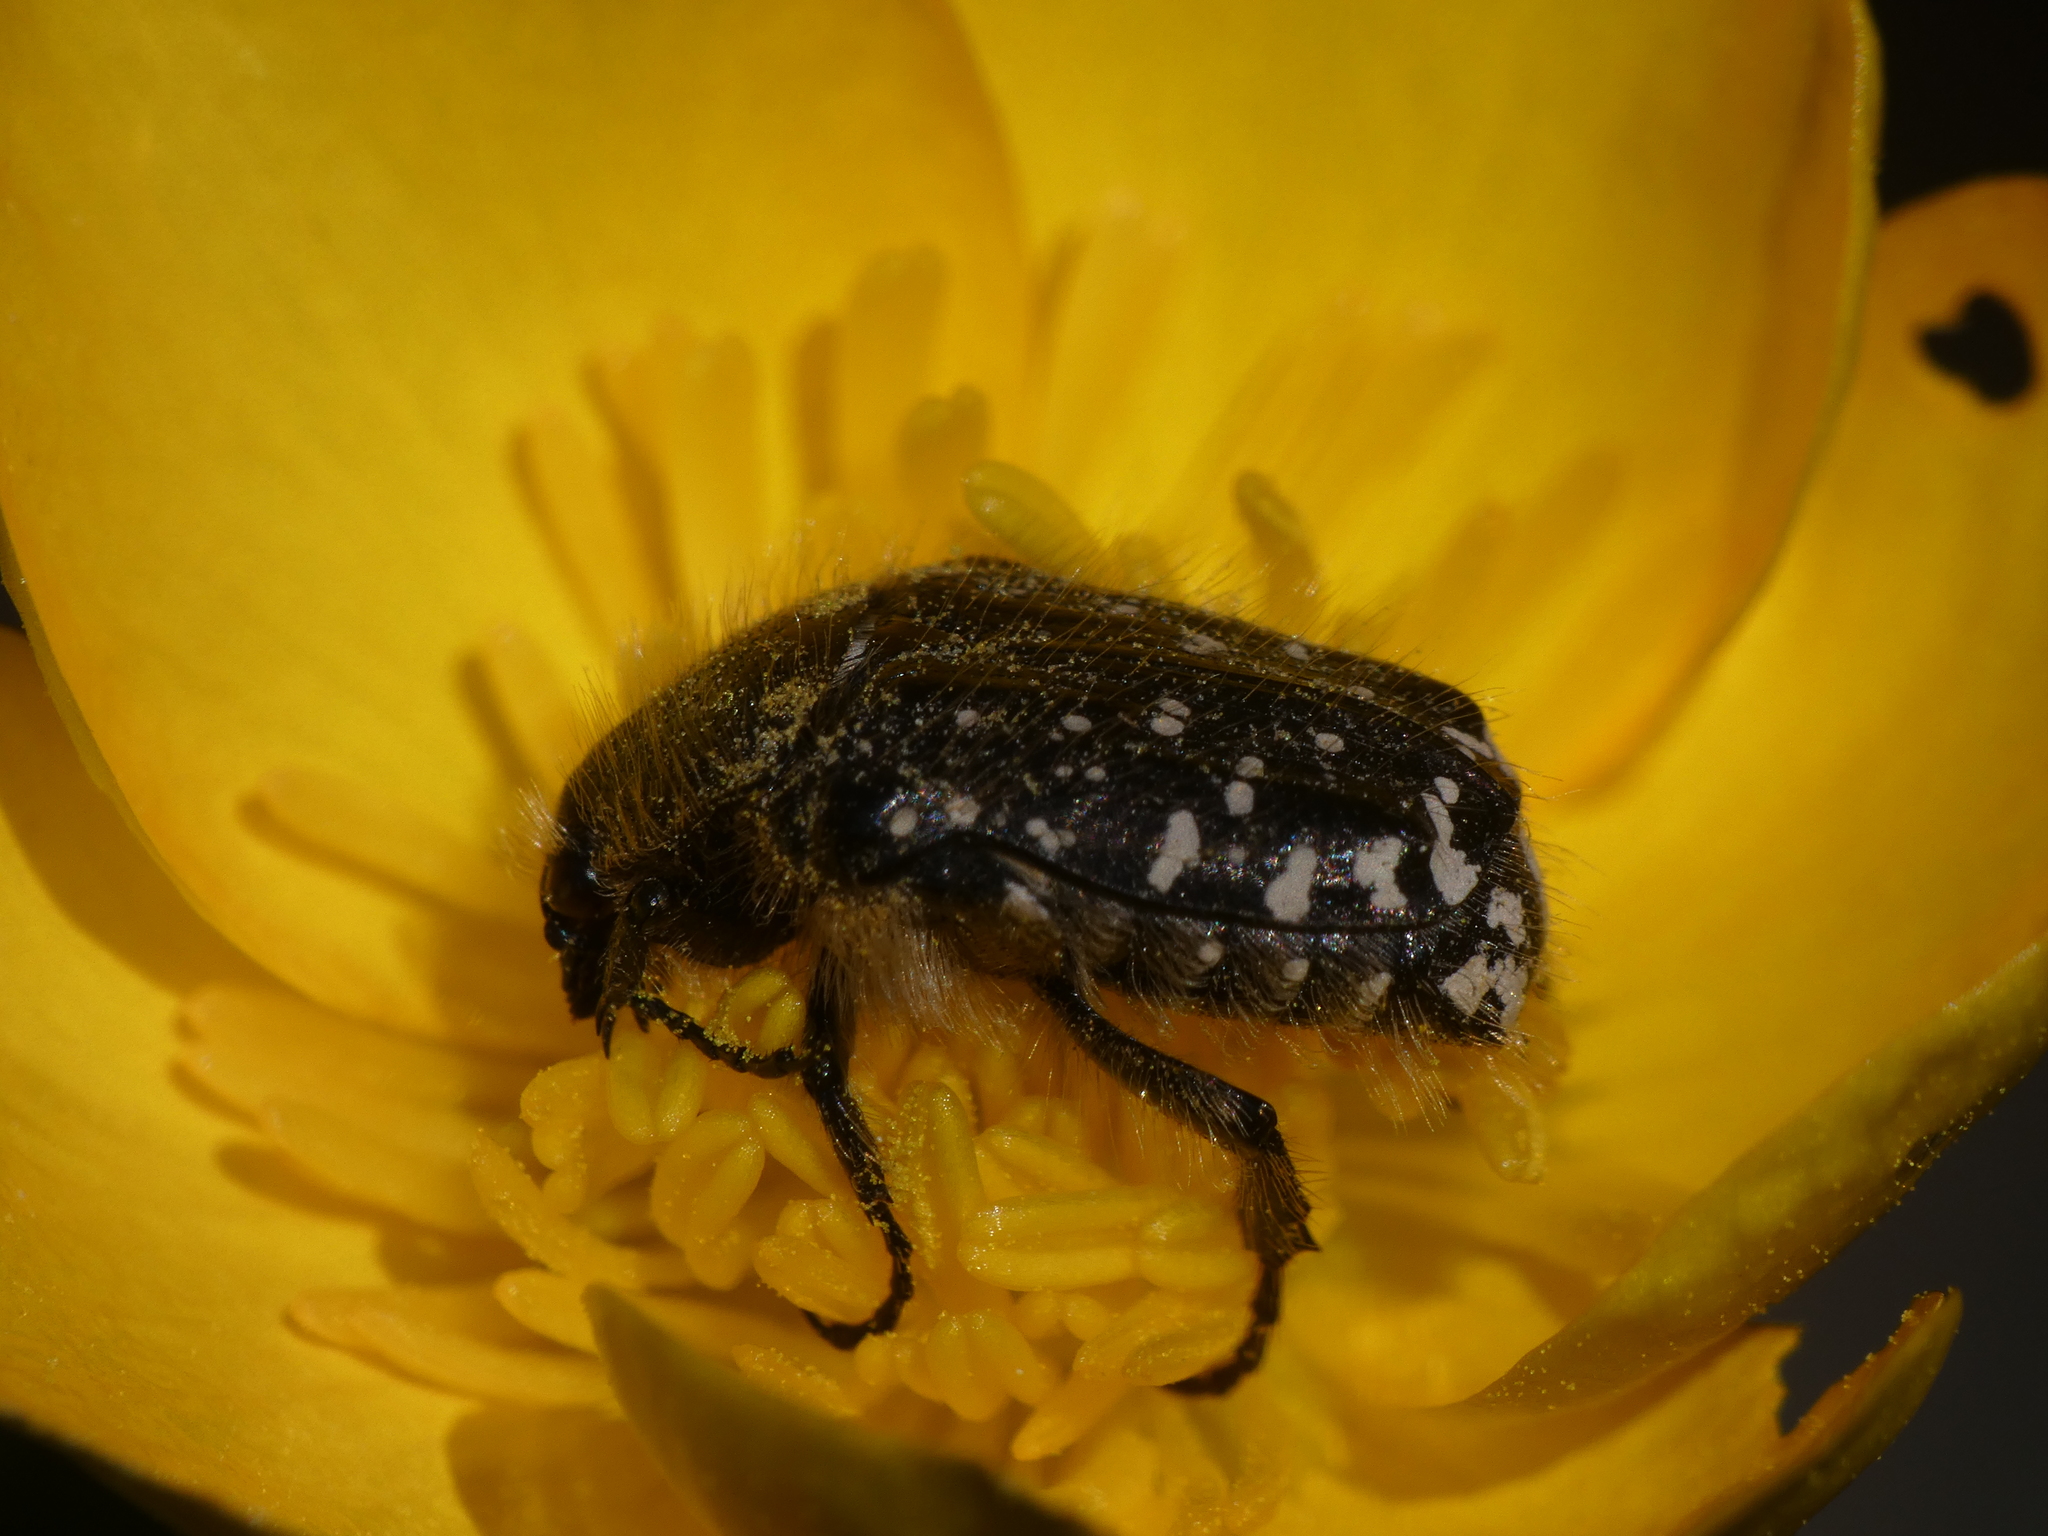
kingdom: Animalia
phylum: Arthropoda
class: Insecta
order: Coleoptera
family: Scarabaeidae
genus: Oxythyrea
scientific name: Oxythyrea funesta
